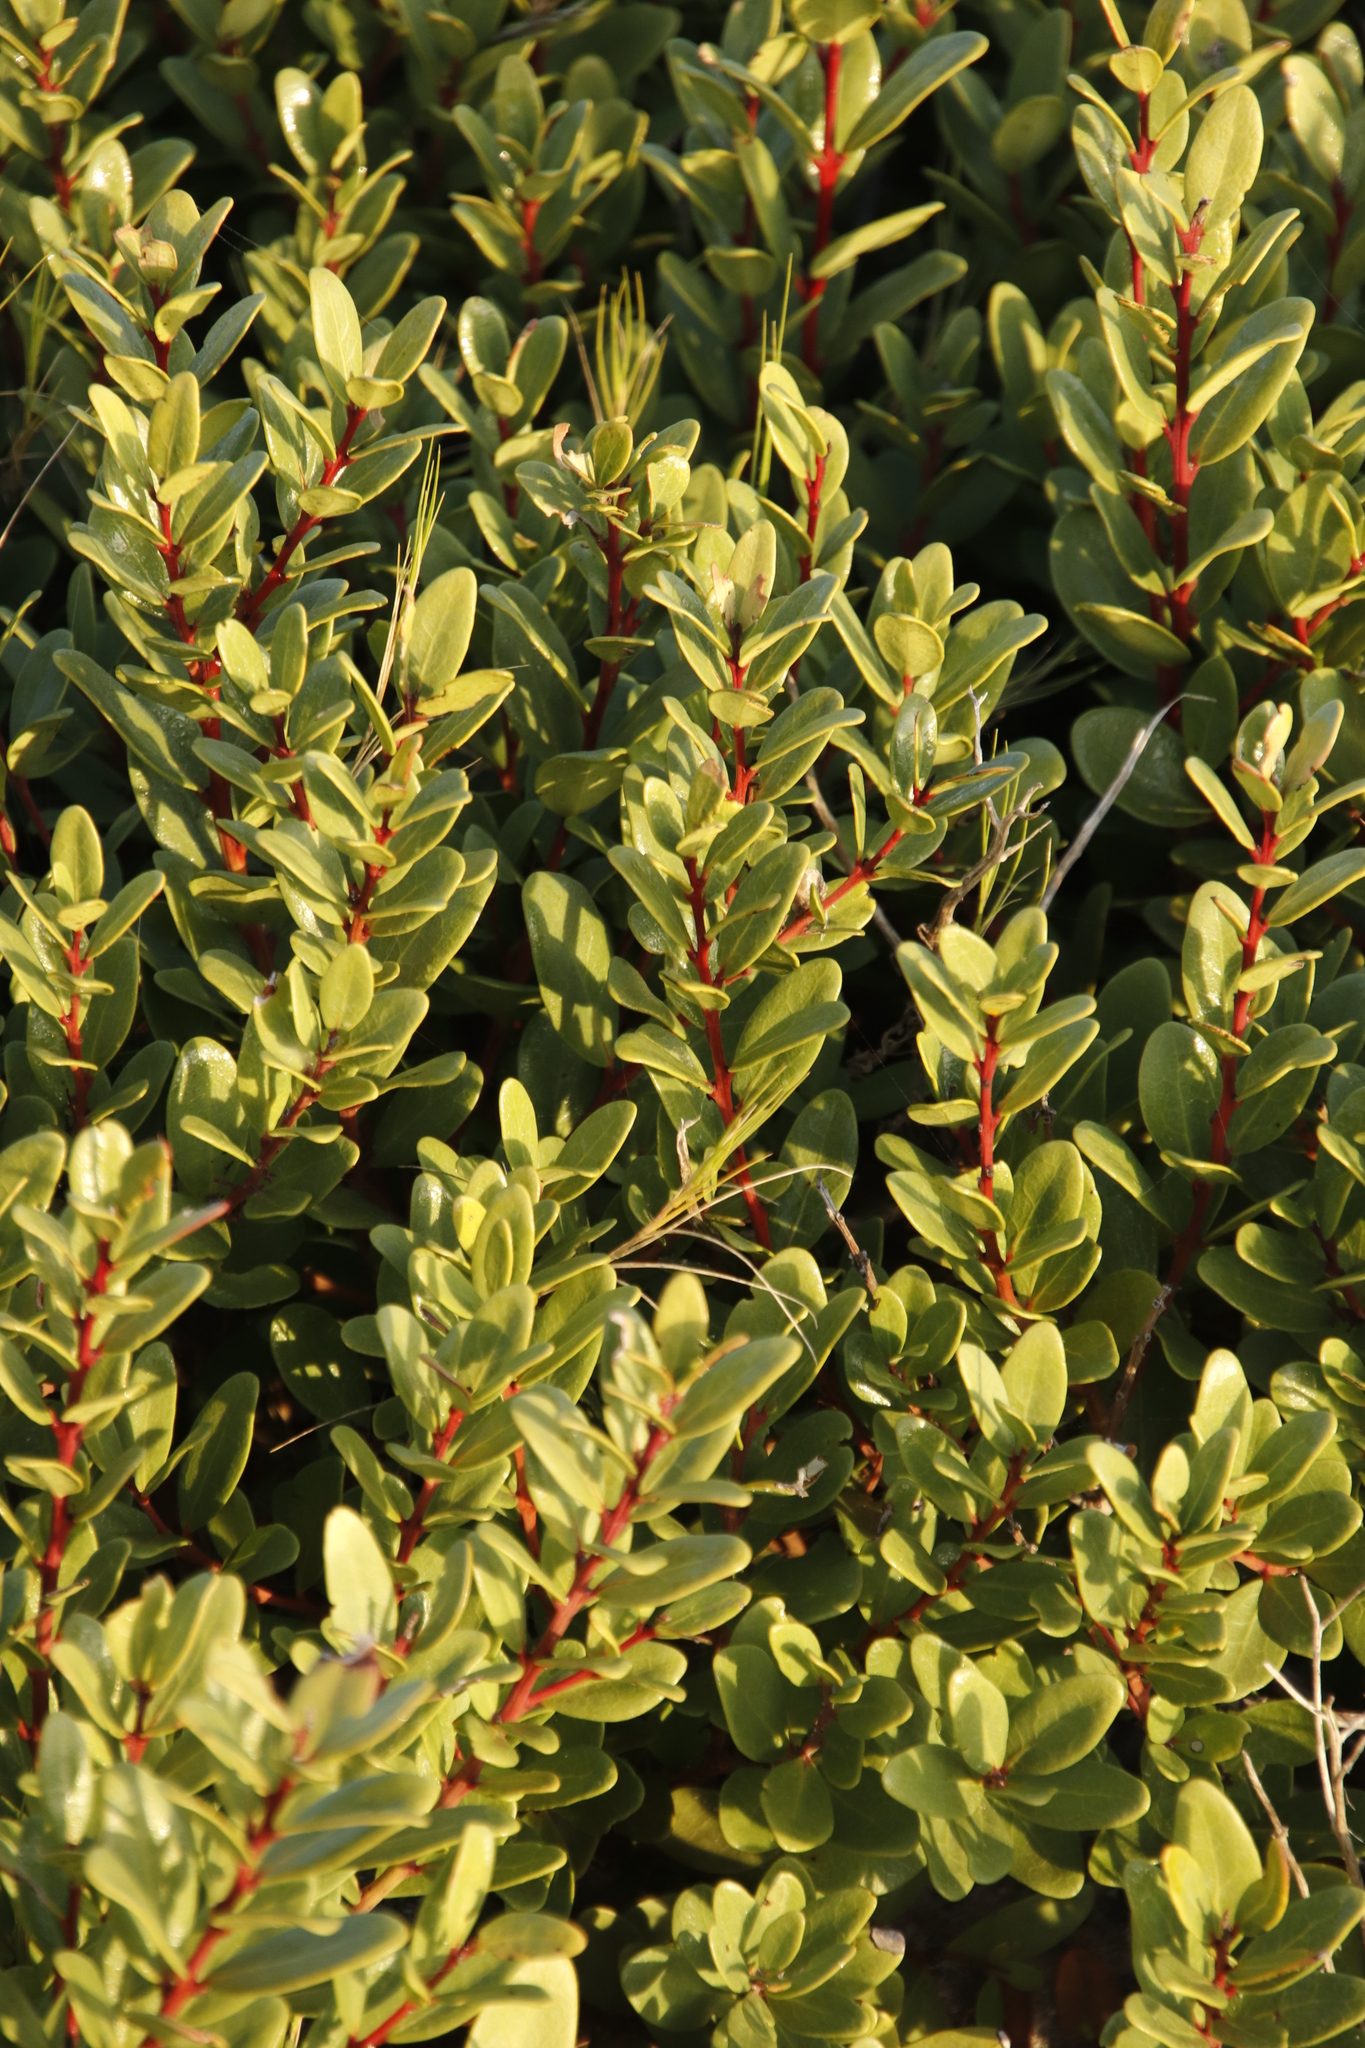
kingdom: Plantae
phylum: Tracheophyta
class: Magnoliopsida
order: Ericales
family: Ebenaceae
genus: Euclea
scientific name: Euclea racemosa
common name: Dune guarri
